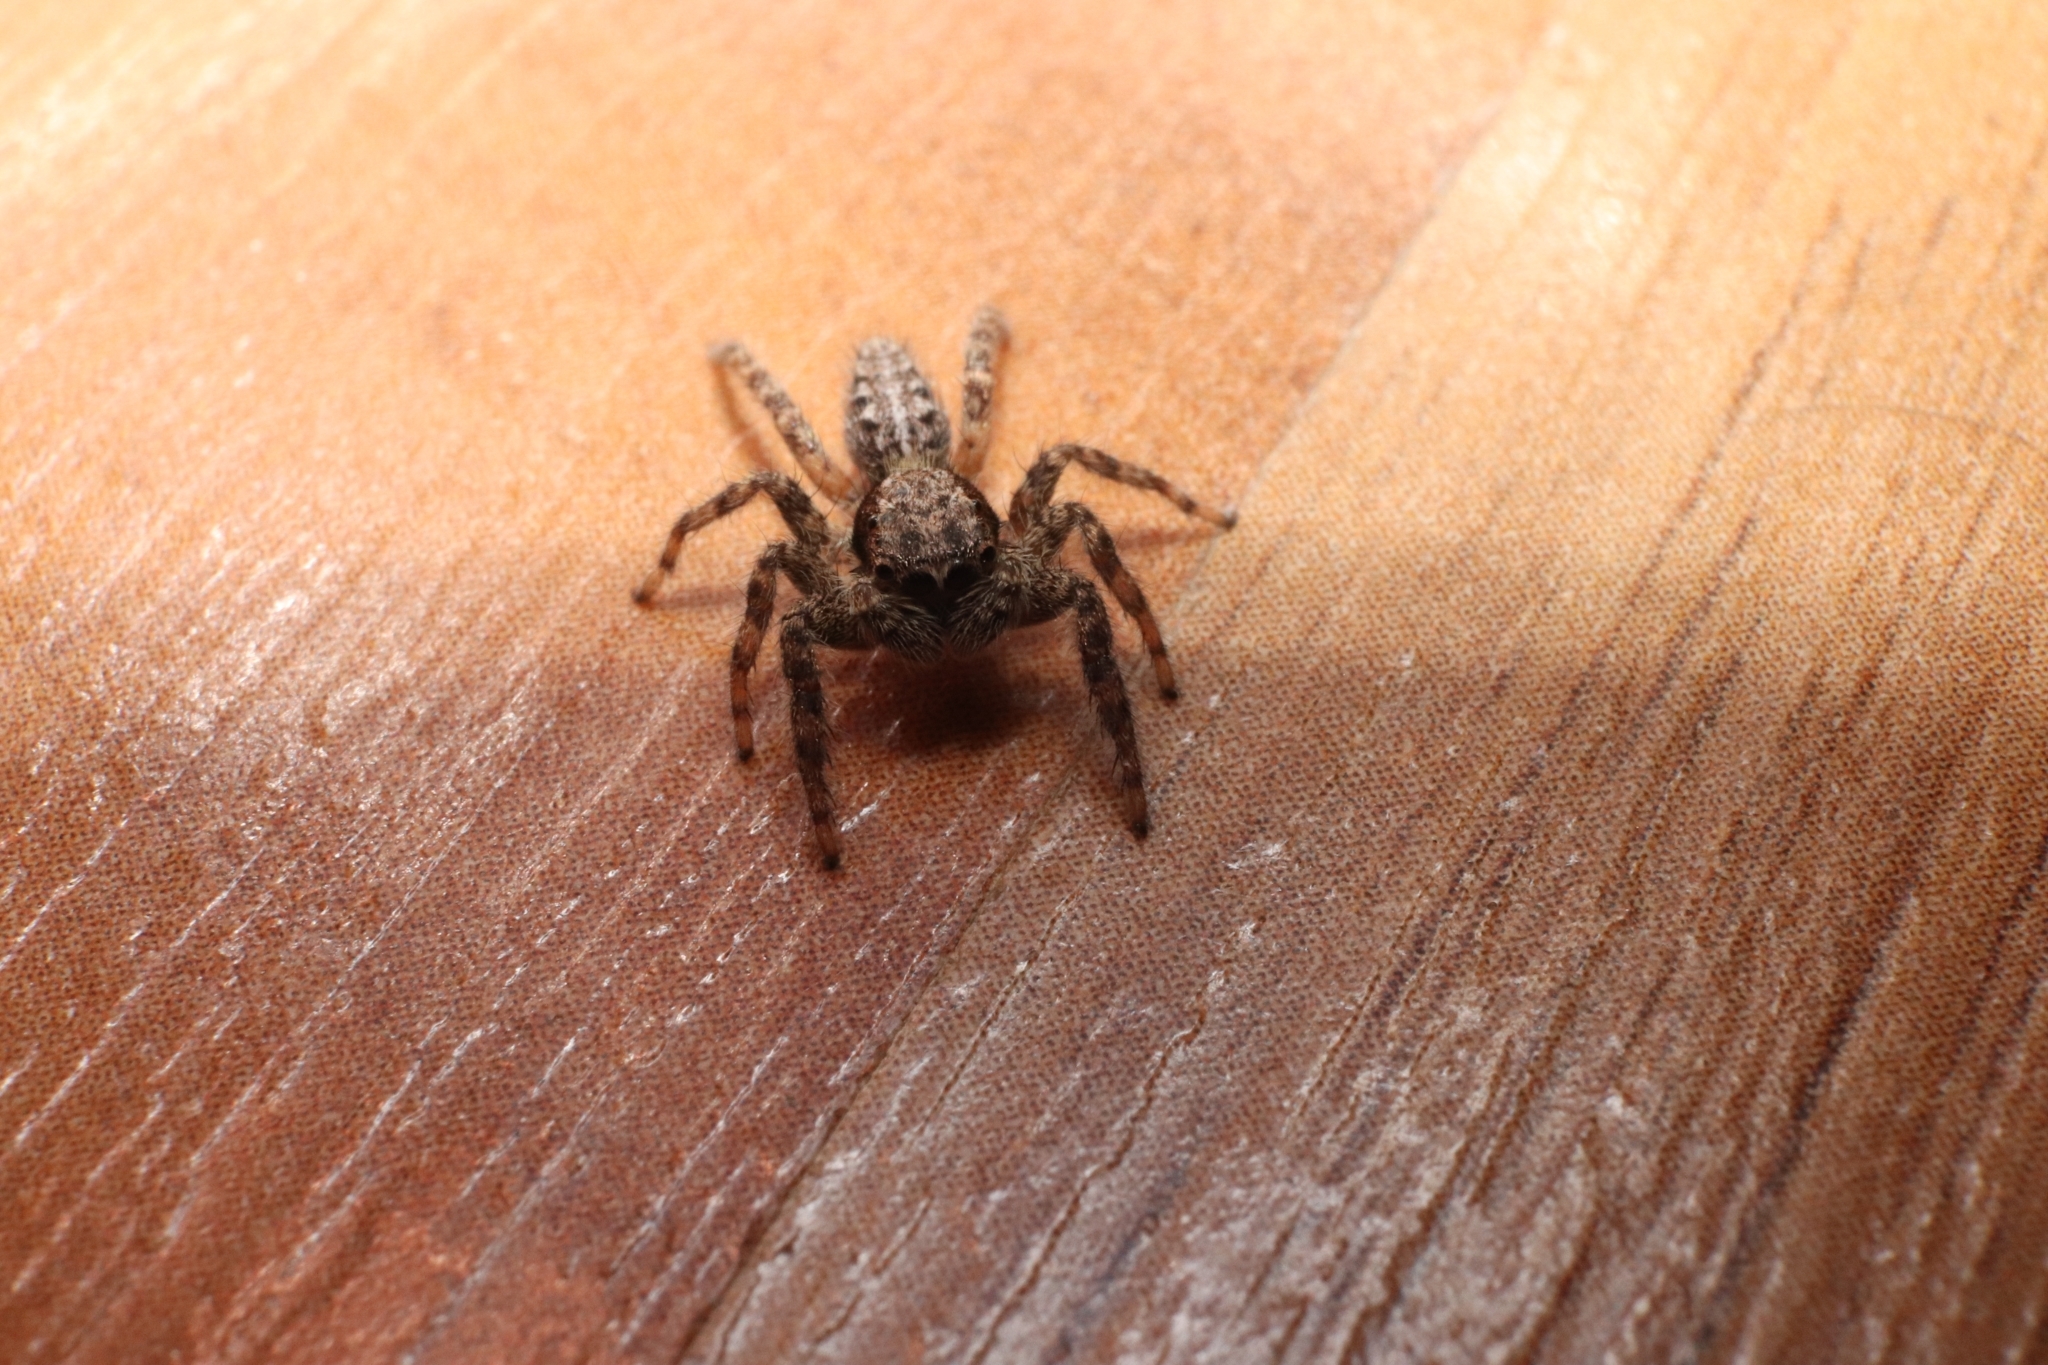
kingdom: Animalia
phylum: Arthropoda
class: Arachnida
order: Araneae
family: Salticidae
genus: Platycryptus
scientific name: Platycryptus californicus
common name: Jumping spiders
